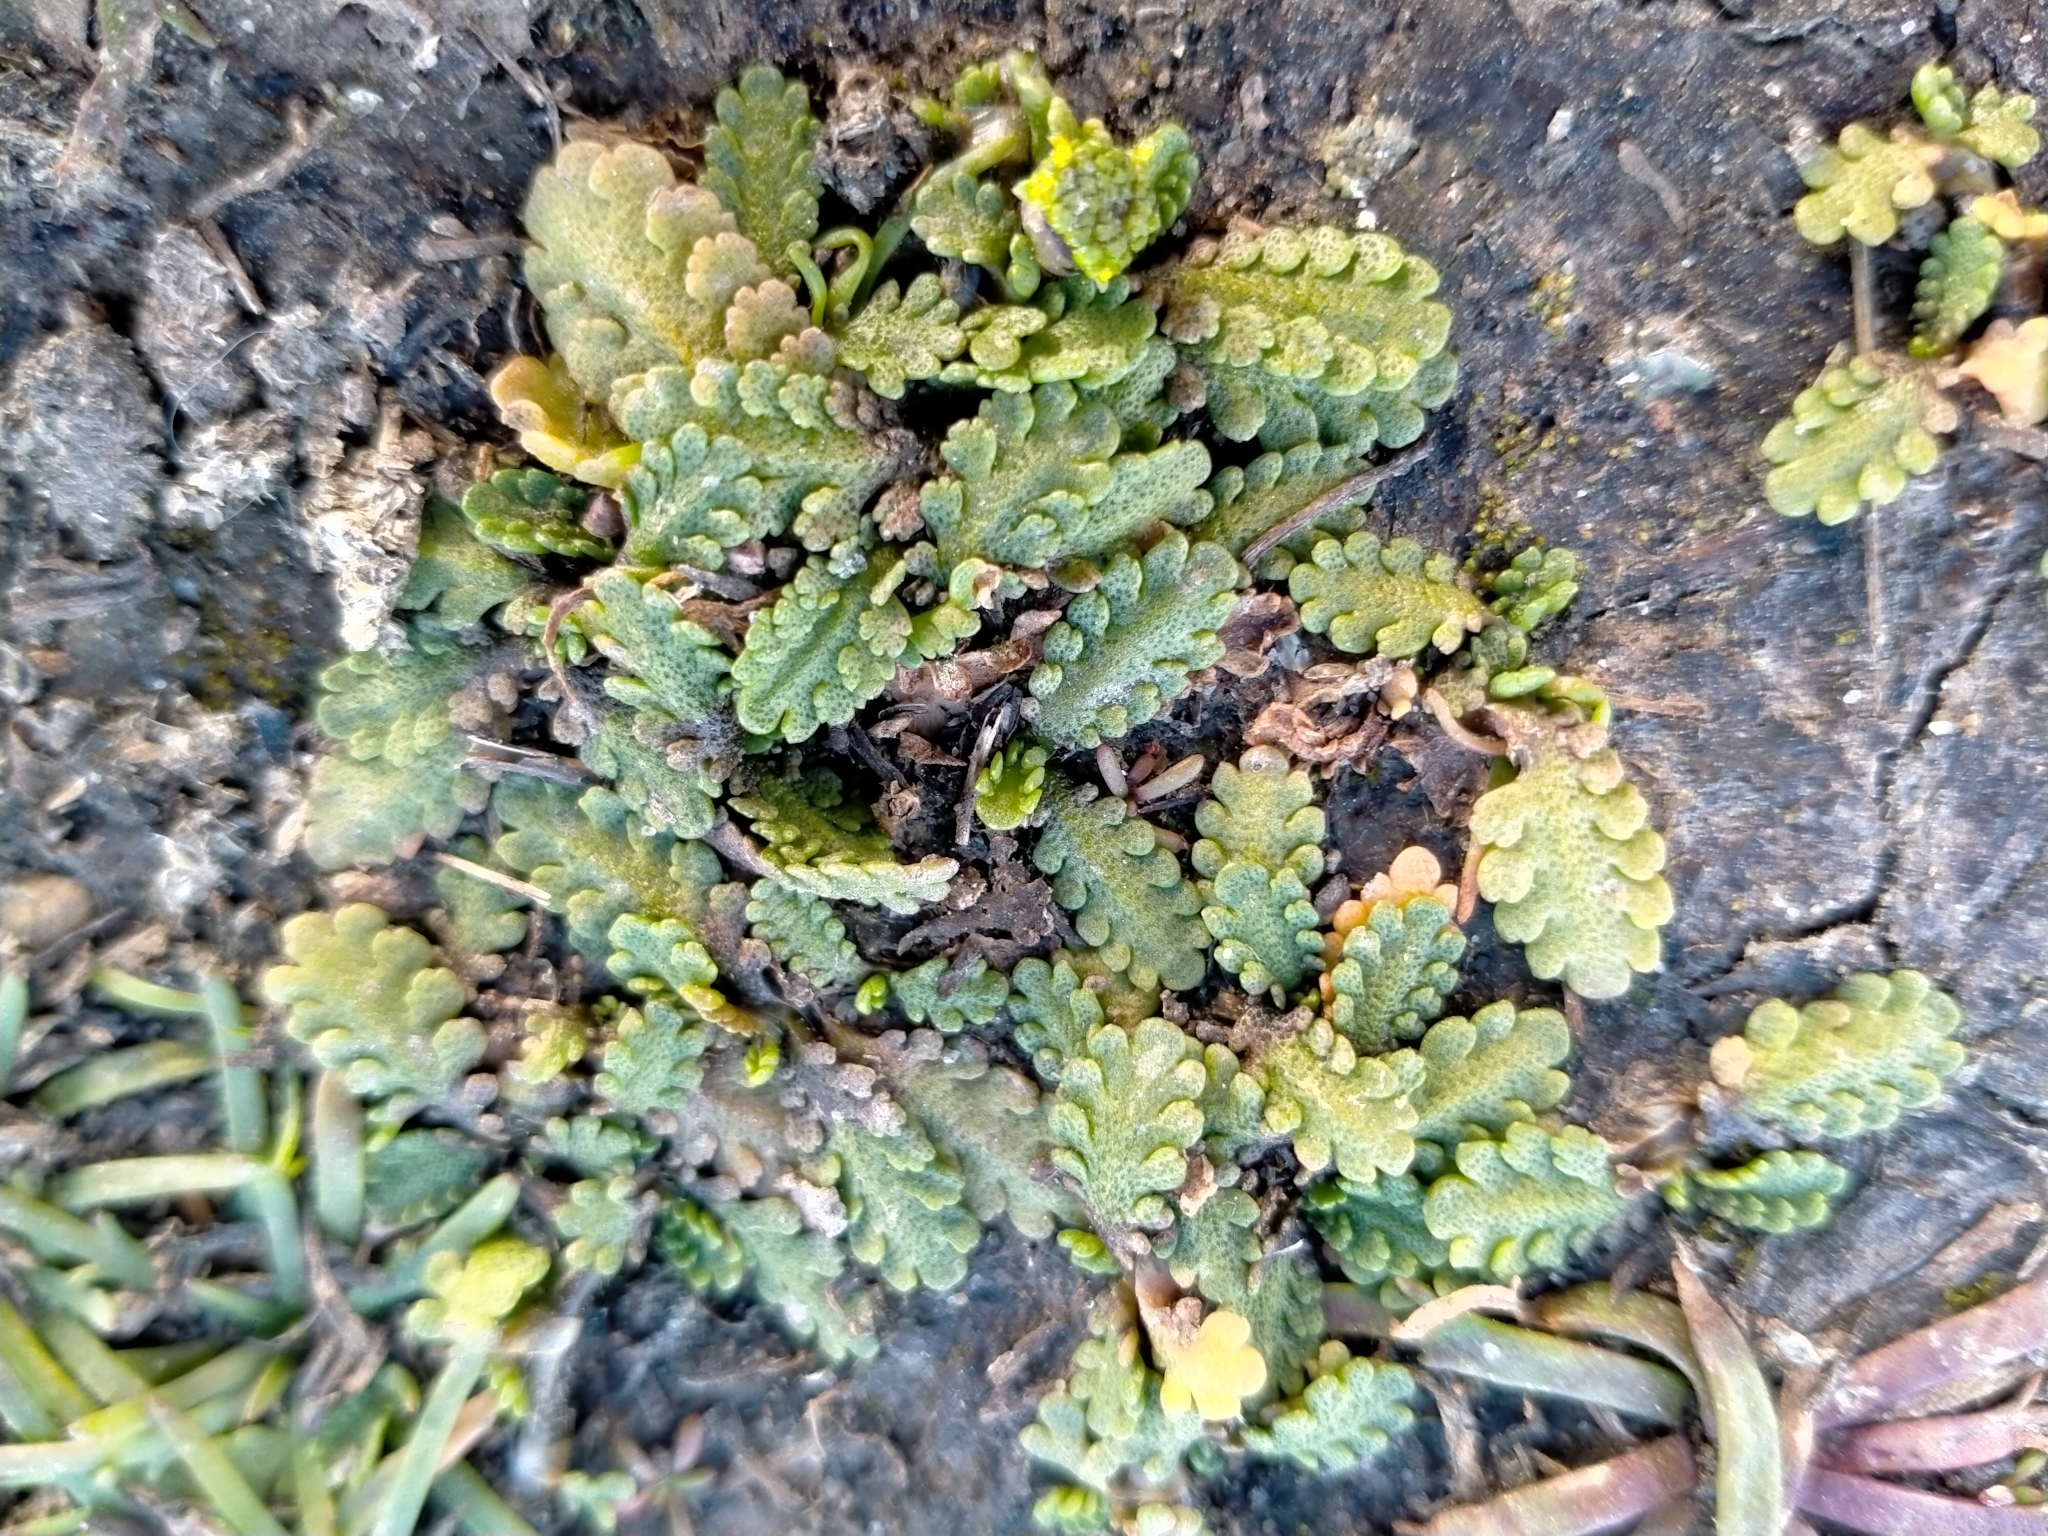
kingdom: Plantae
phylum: Tracheophyta
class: Magnoliopsida
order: Asterales
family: Asteraceae
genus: Leptinella
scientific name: Leptinella dioica
